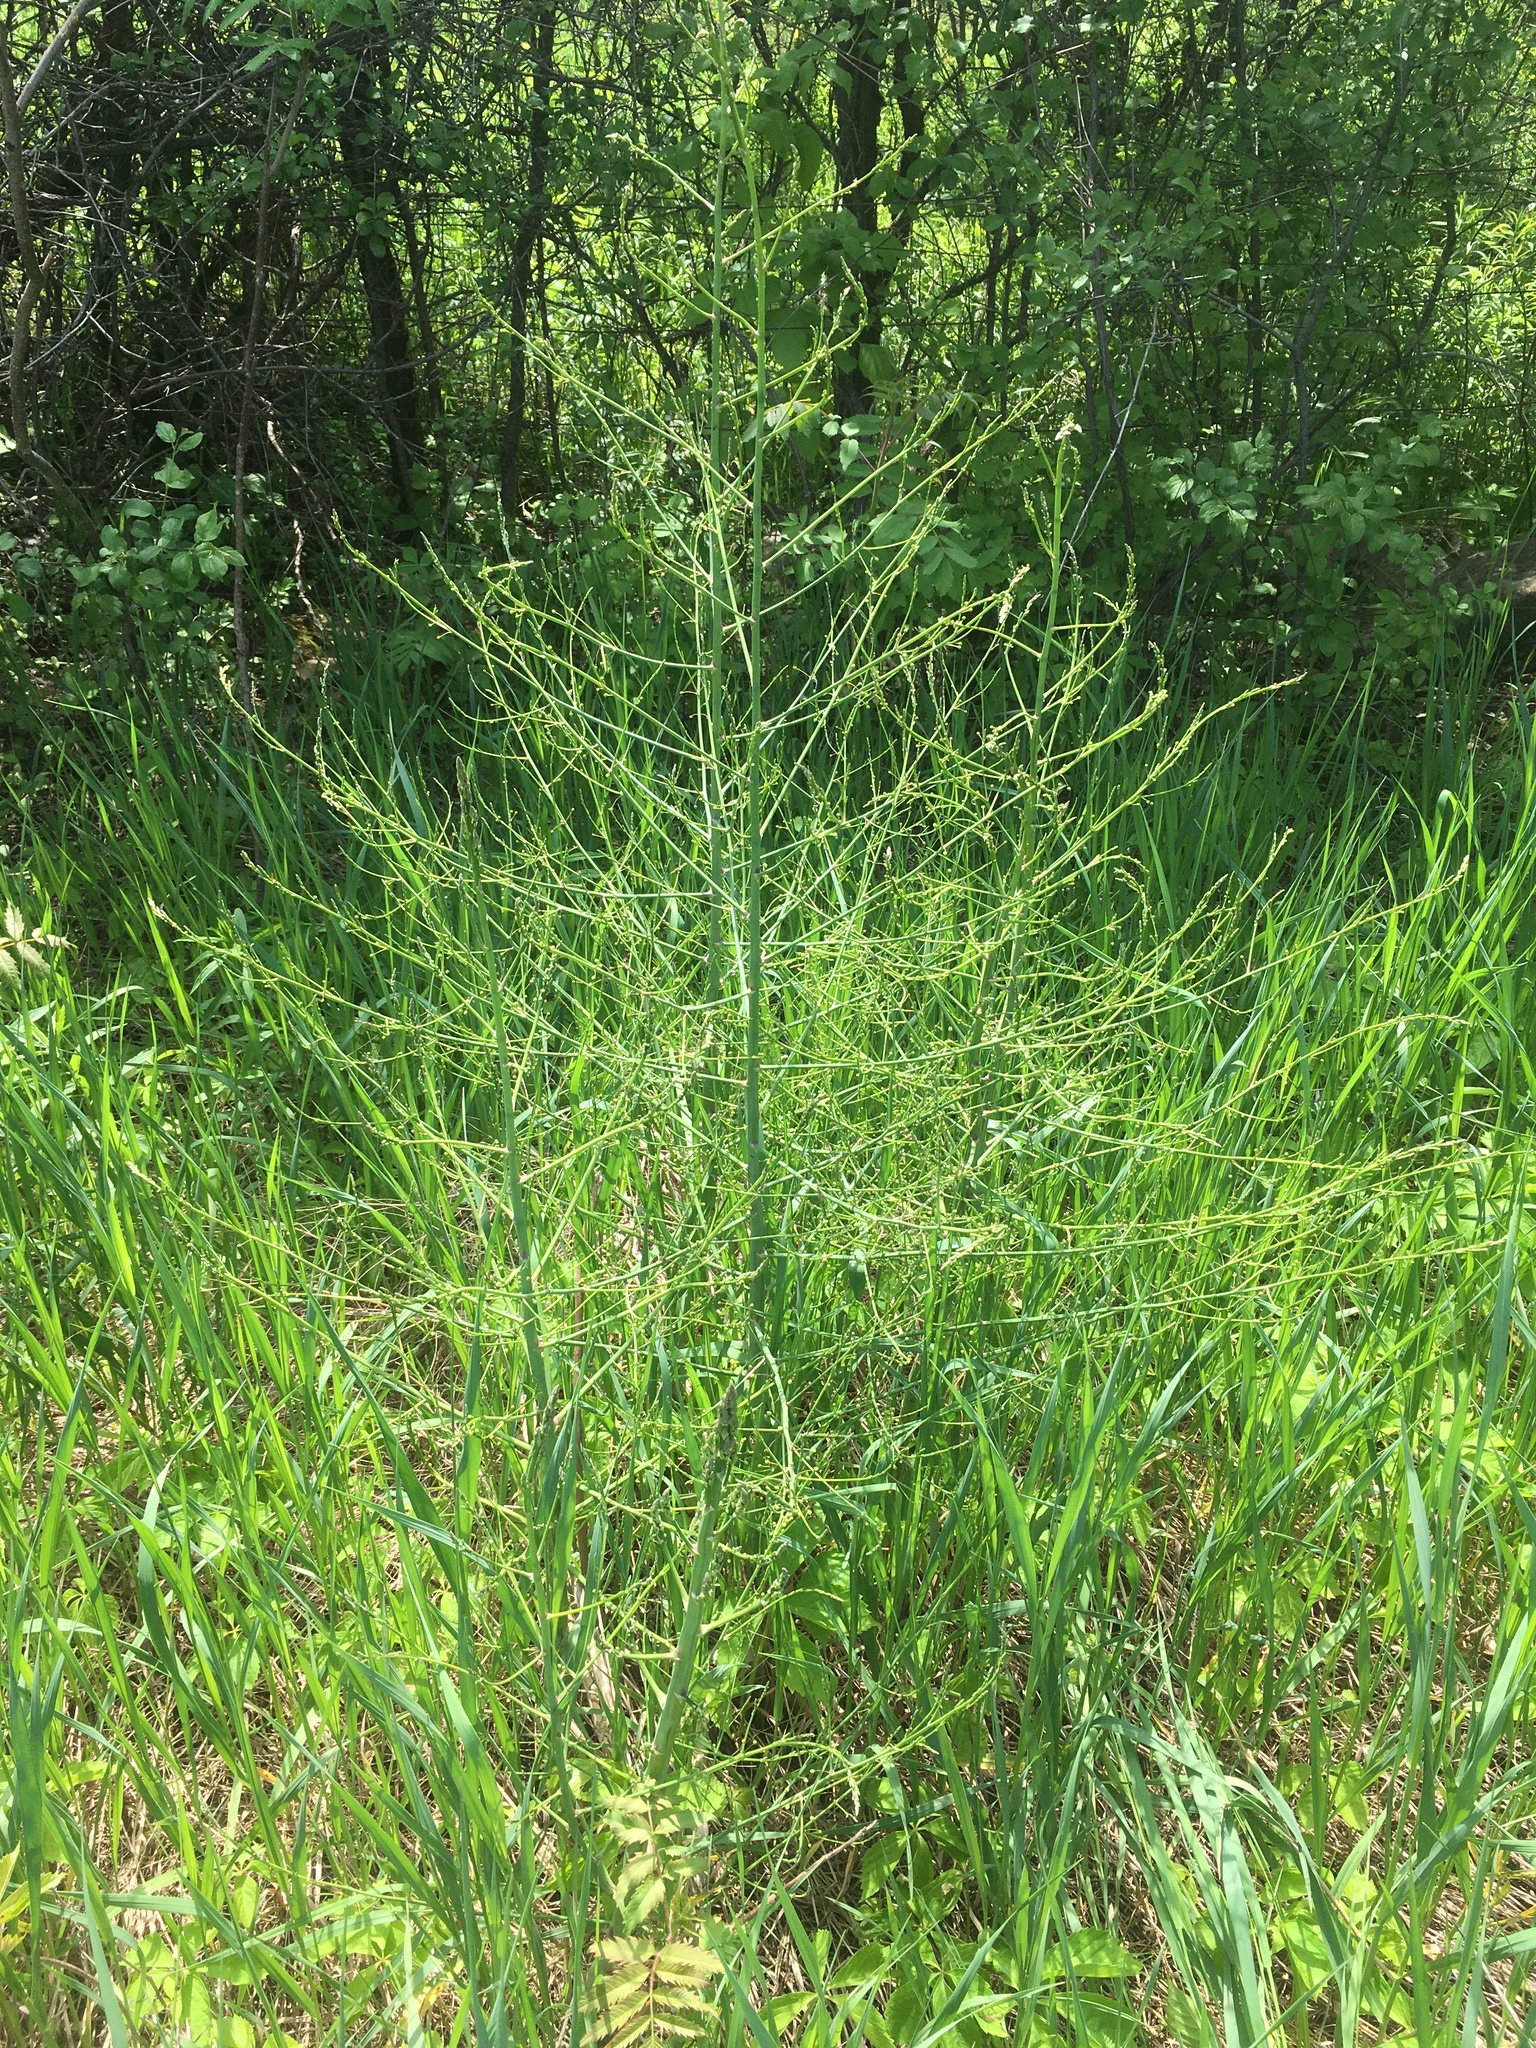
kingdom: Plantae
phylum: Tracheophyta
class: Liliopsida
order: Asparagales
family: Asparagaceae
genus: Asparagus
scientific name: Asparagus officinalis
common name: Garden asparagus
